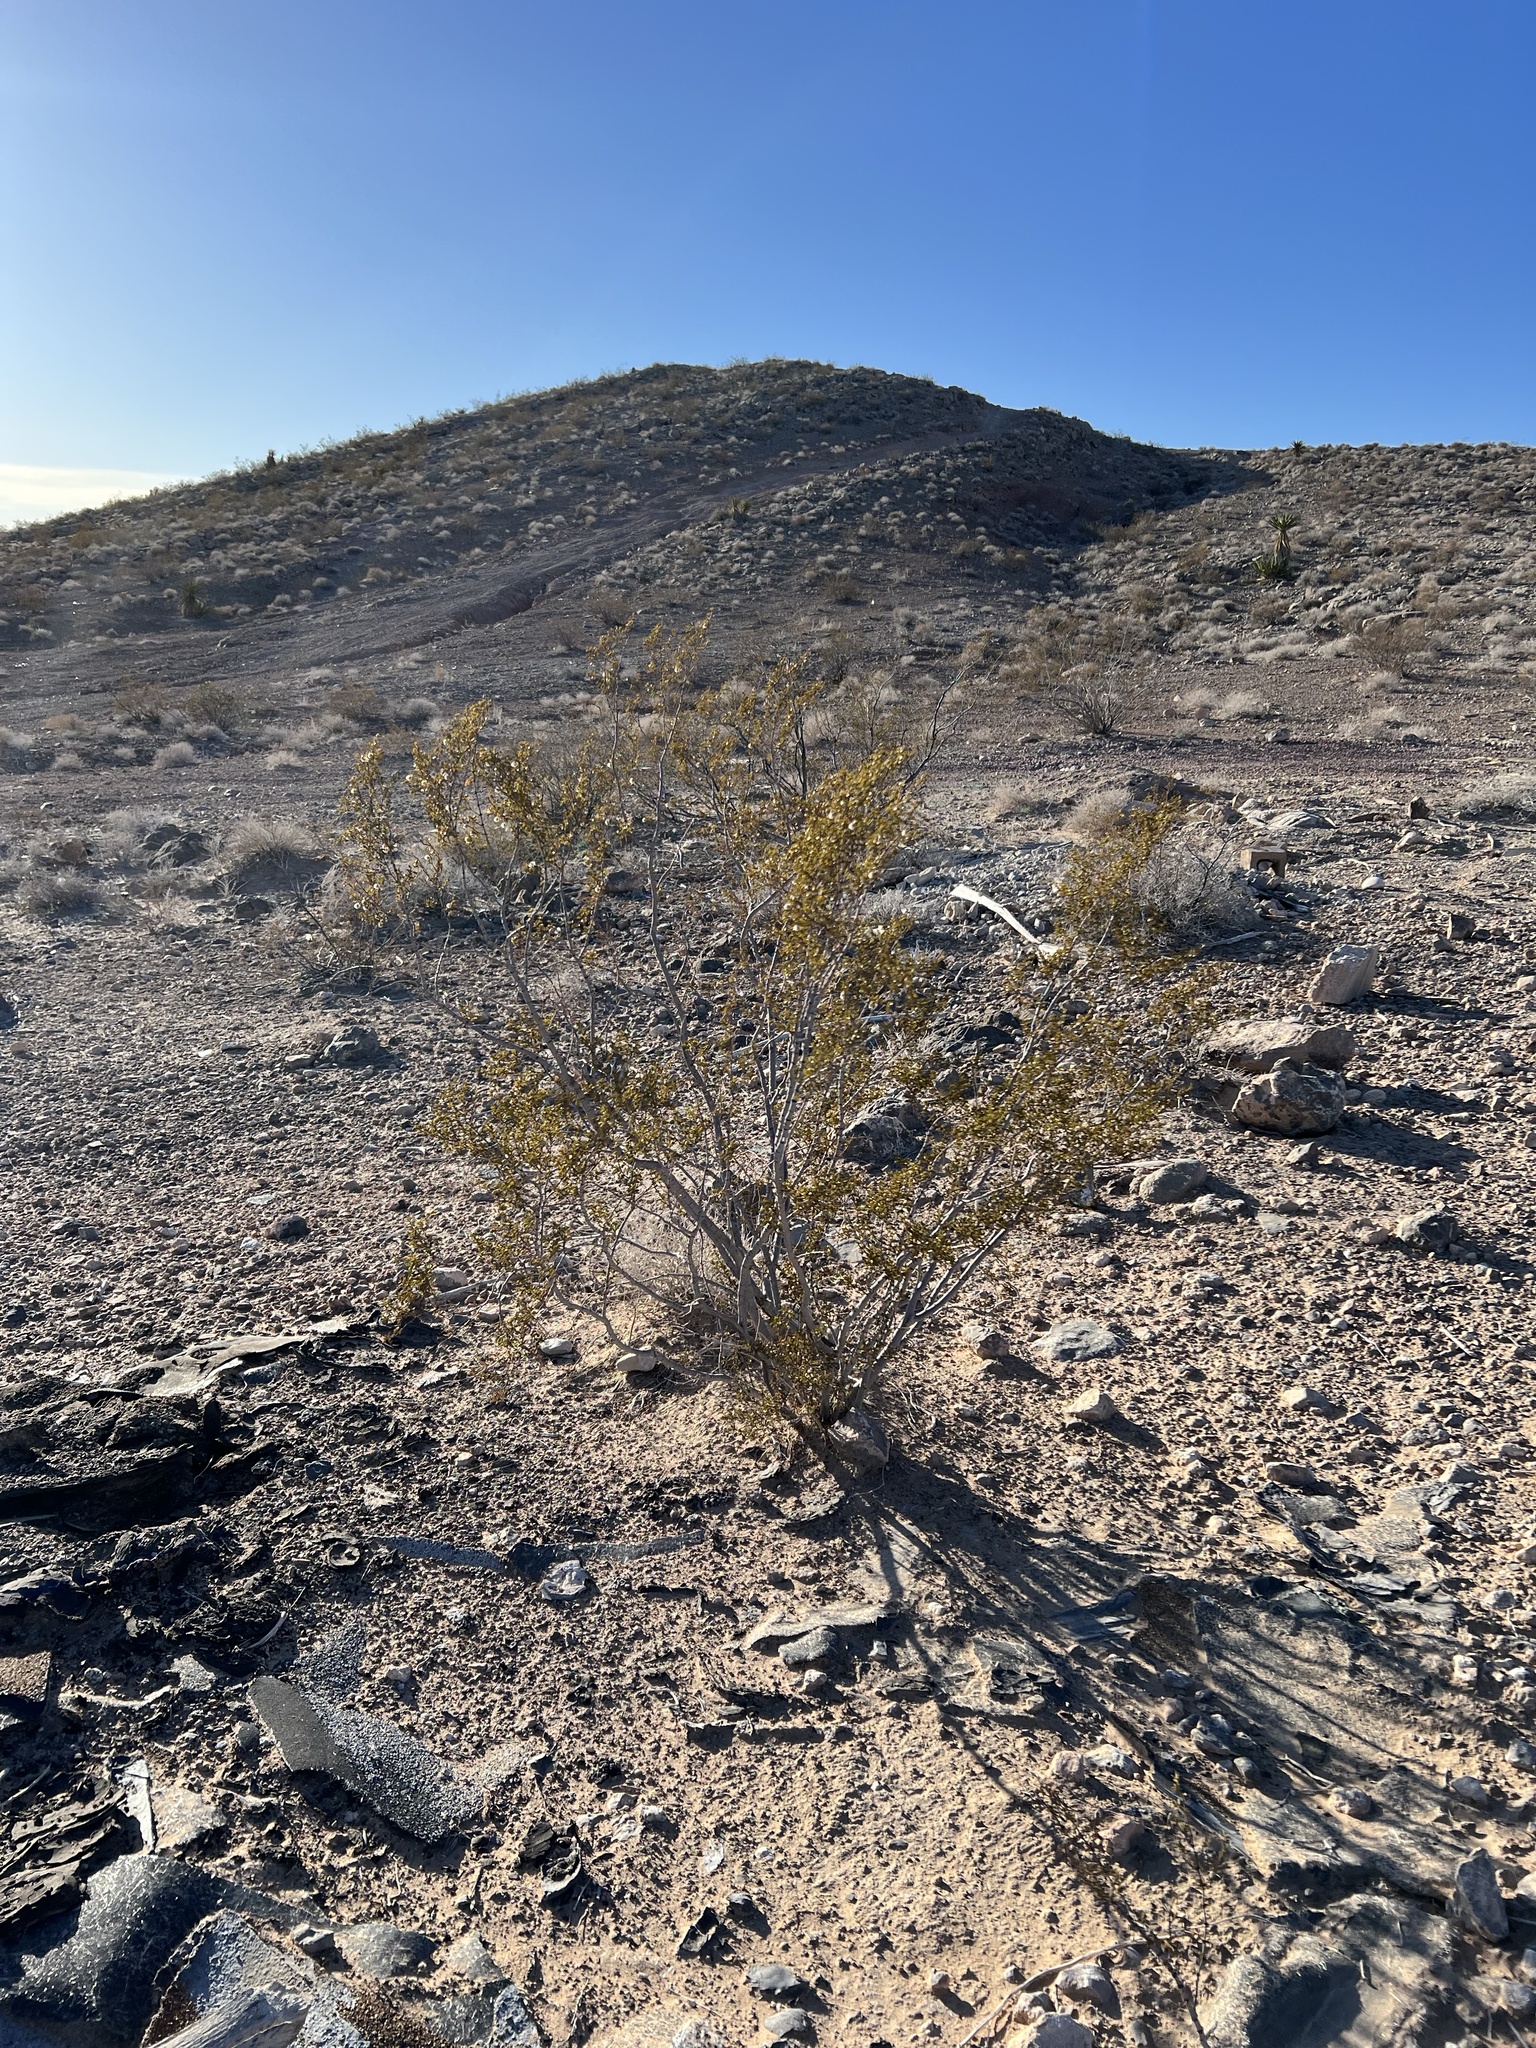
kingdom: Plantae
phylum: Tracheophyta
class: Magnoliopsida
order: Zygophyllales
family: Zygophyllaceae
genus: Larrea
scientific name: Larrea tridentata
